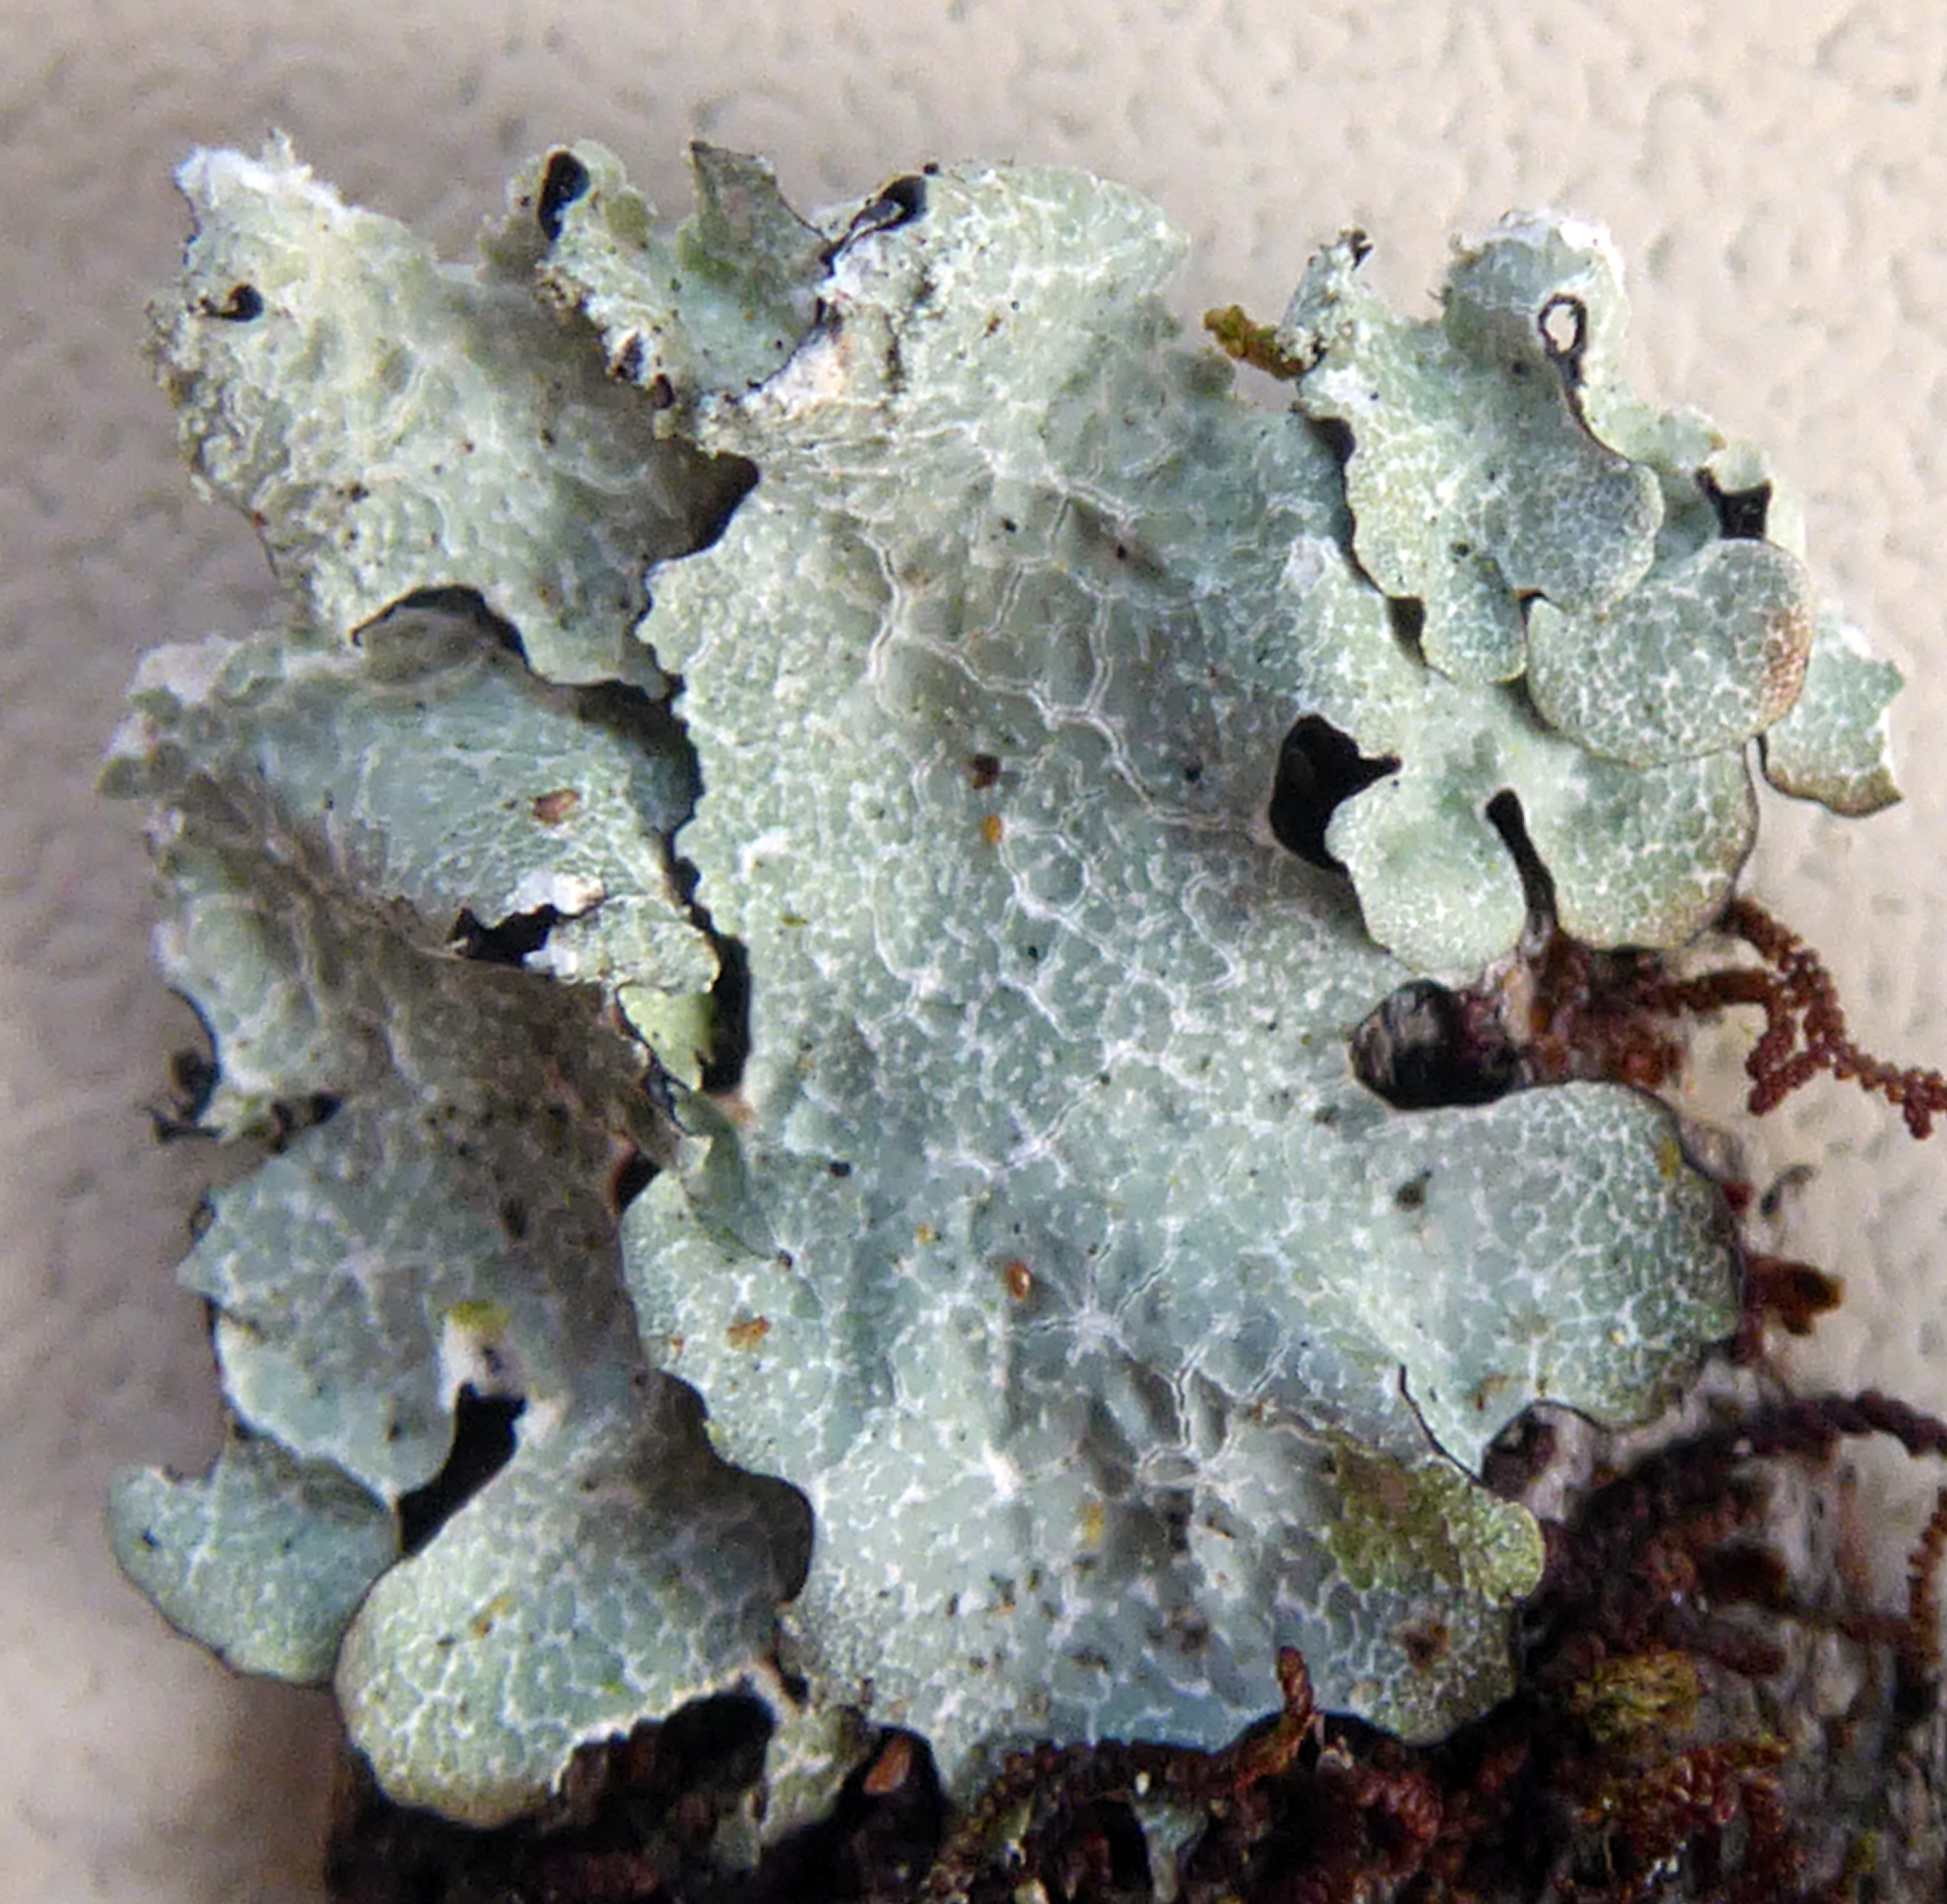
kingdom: Fungi
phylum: Ascomycota
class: Lecanoromycetes
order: Lecanorales
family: Parmeliaceae
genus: Notoparmelia
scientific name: Notoparmelia erumpens
